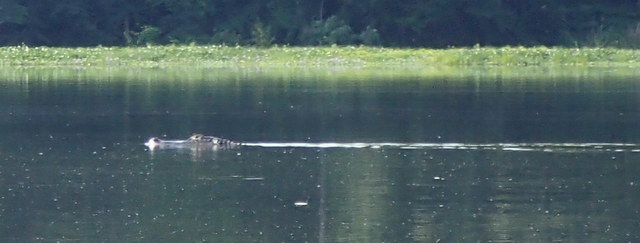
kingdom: Animalia
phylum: Chordata
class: Crocodylia
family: Alligatoridae
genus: Alligator
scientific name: Alligator mississippiensis
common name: American alligator
